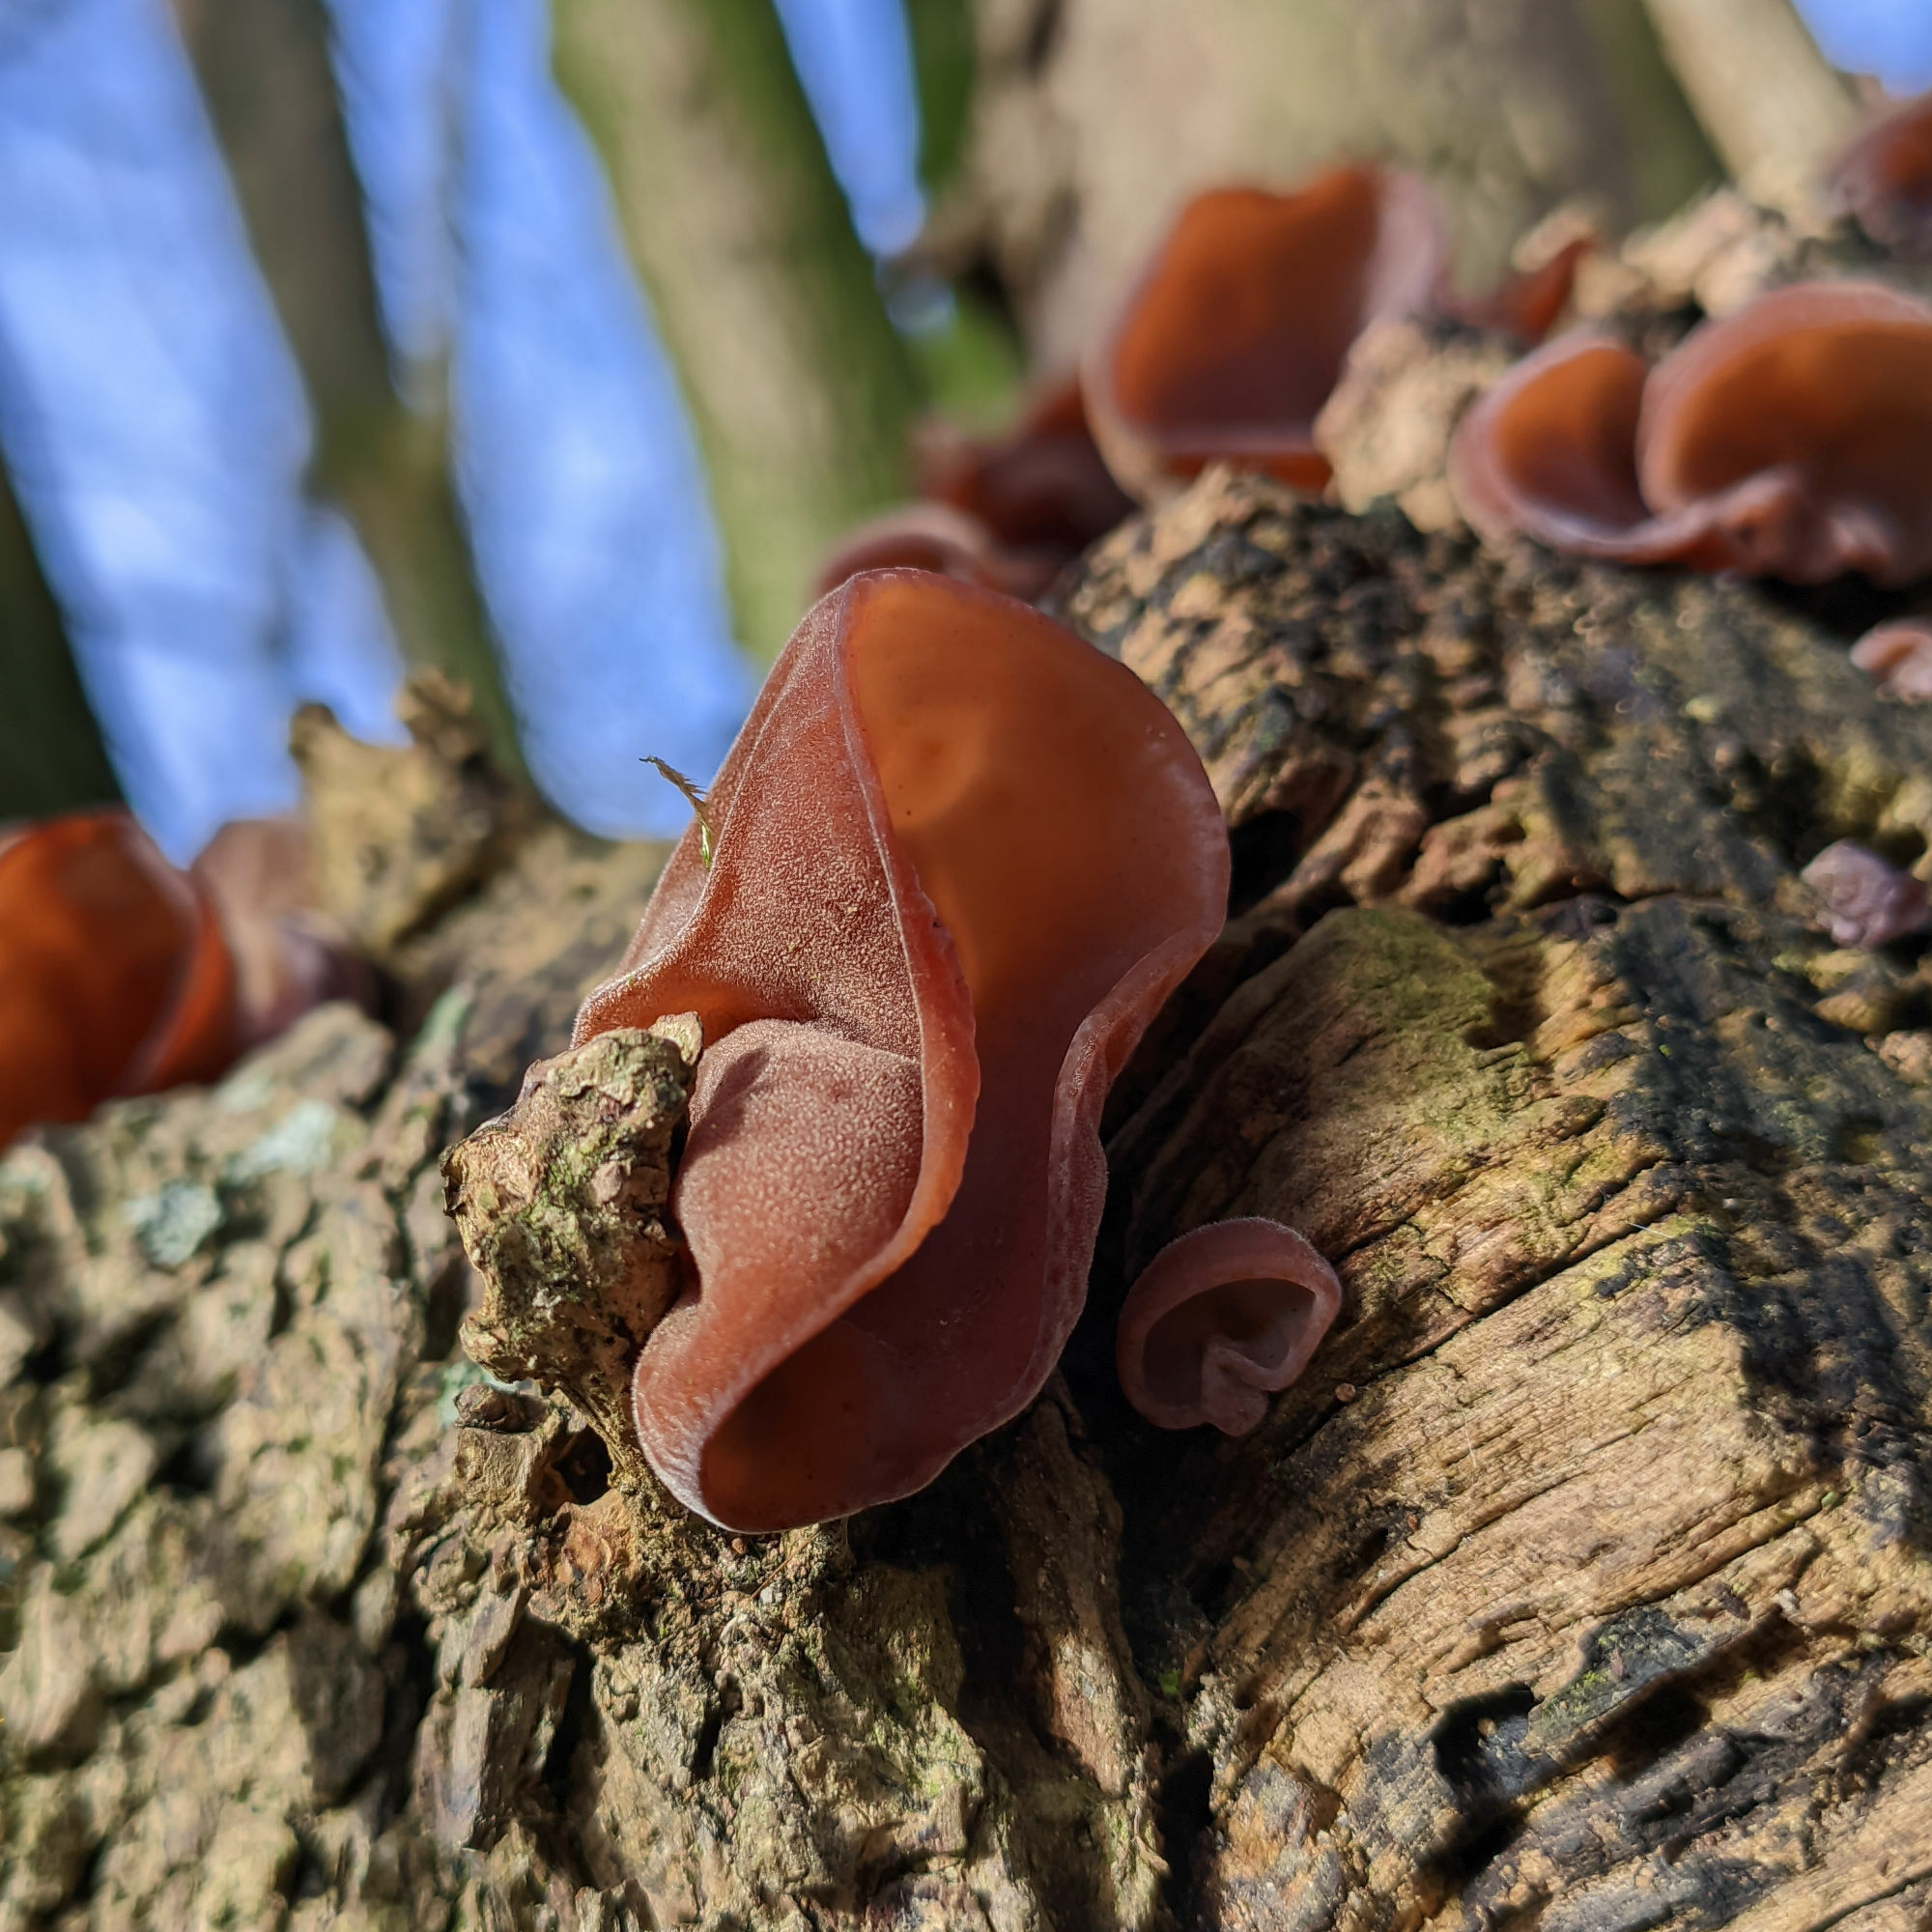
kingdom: Fungi
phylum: Basidiomycota
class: Agaricomycetes
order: Auriculariales
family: Auriculariaceae
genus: Auricularia
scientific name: Auricularia auricula-judae
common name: Jelly ear
